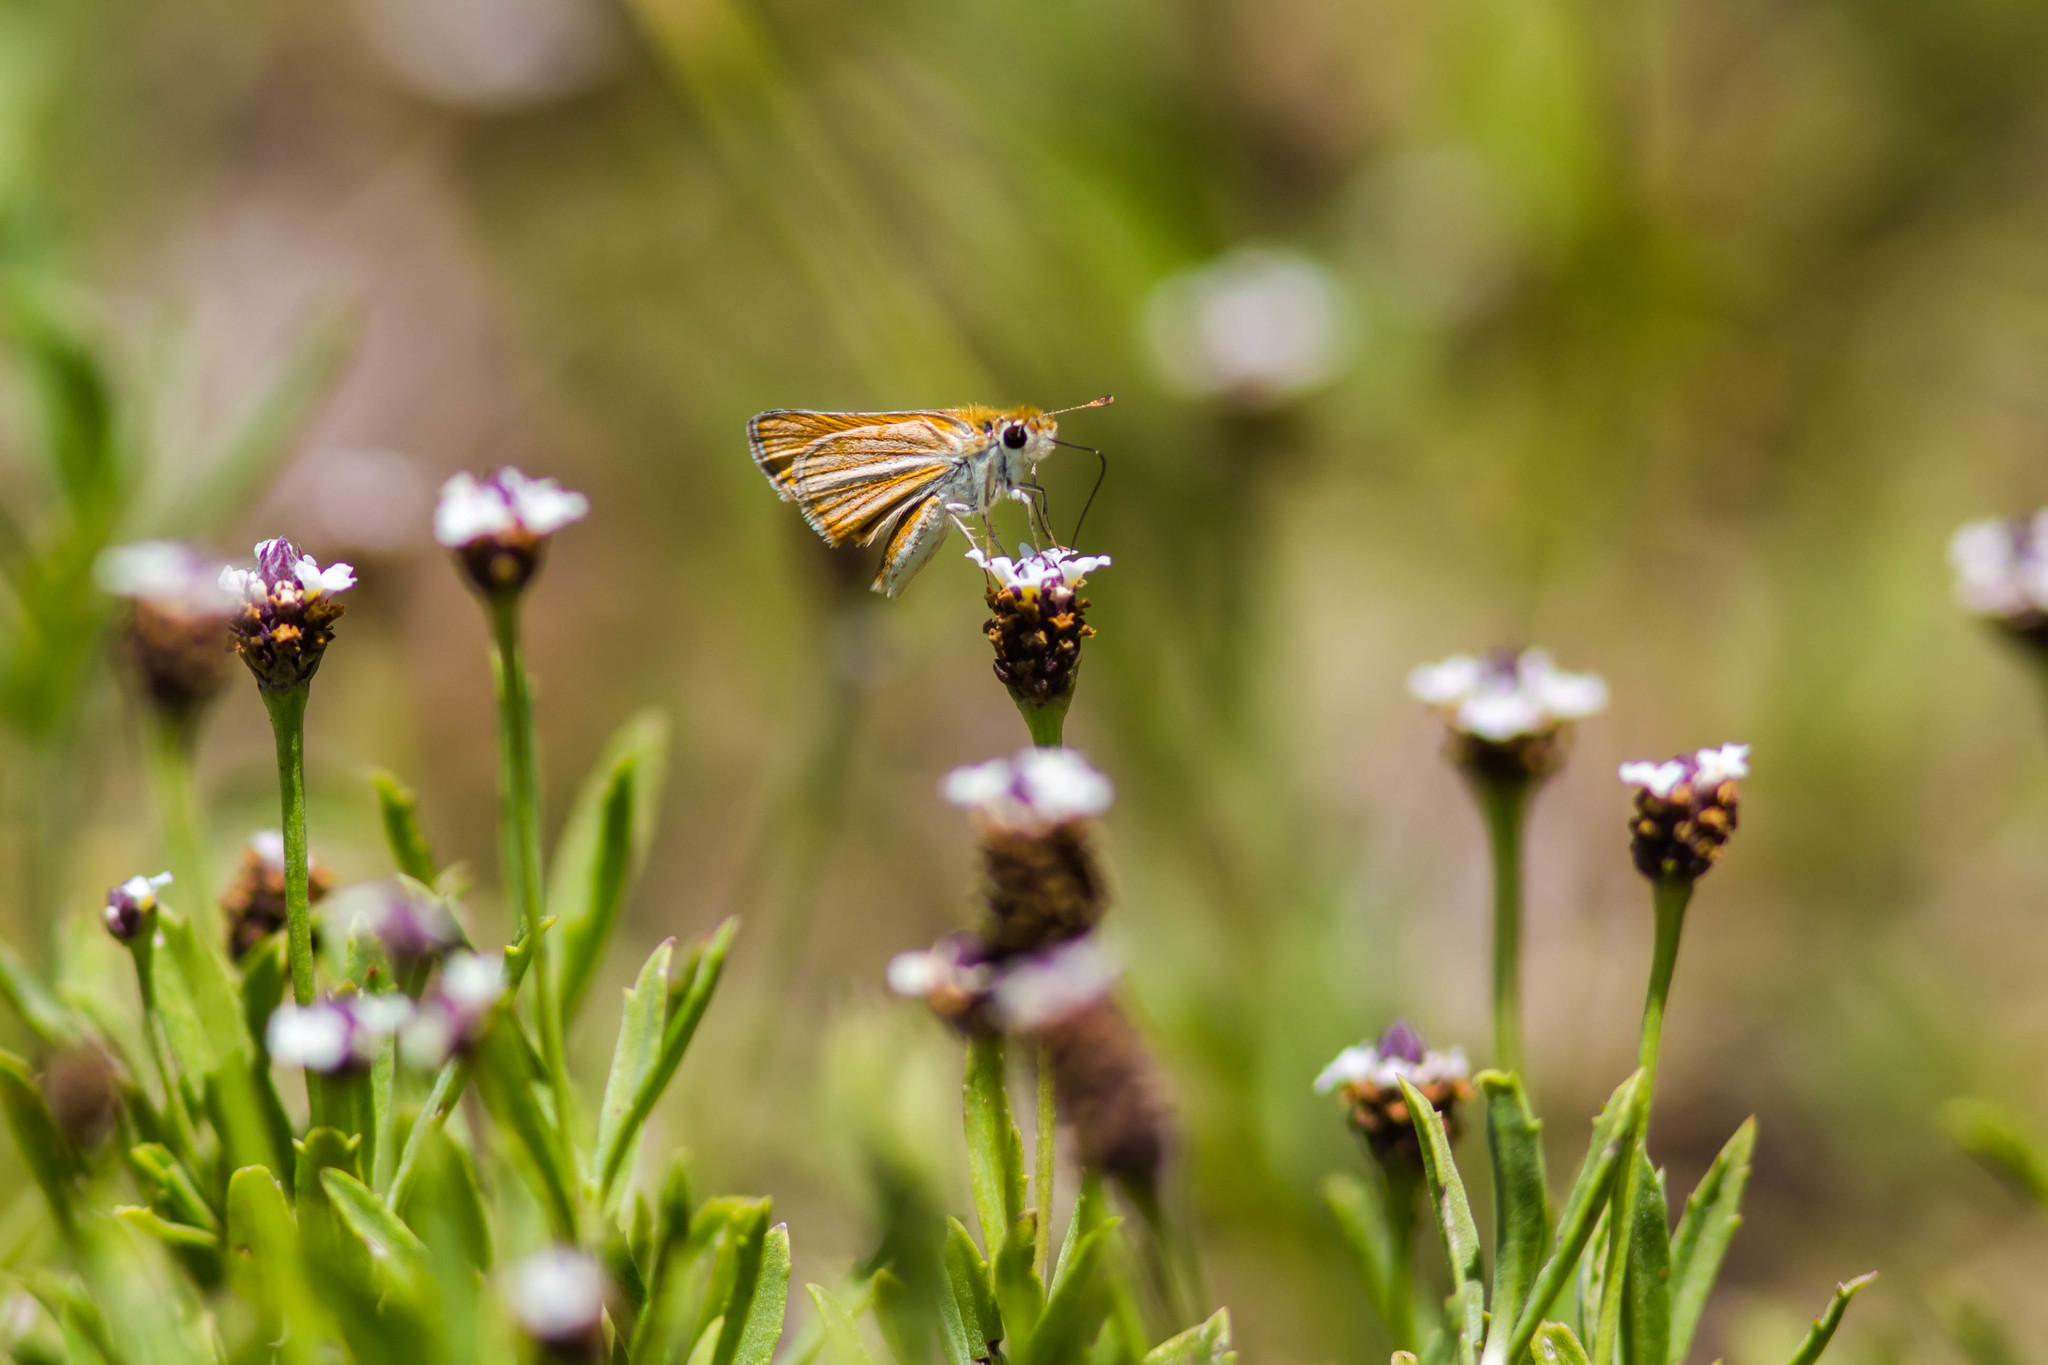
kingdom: Animalia
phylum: Arthropoda
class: Insecta
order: Lepidoptera
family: Hesperiidae
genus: Copaeodes
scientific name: Copaeodes minima
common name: Southern skipperling
